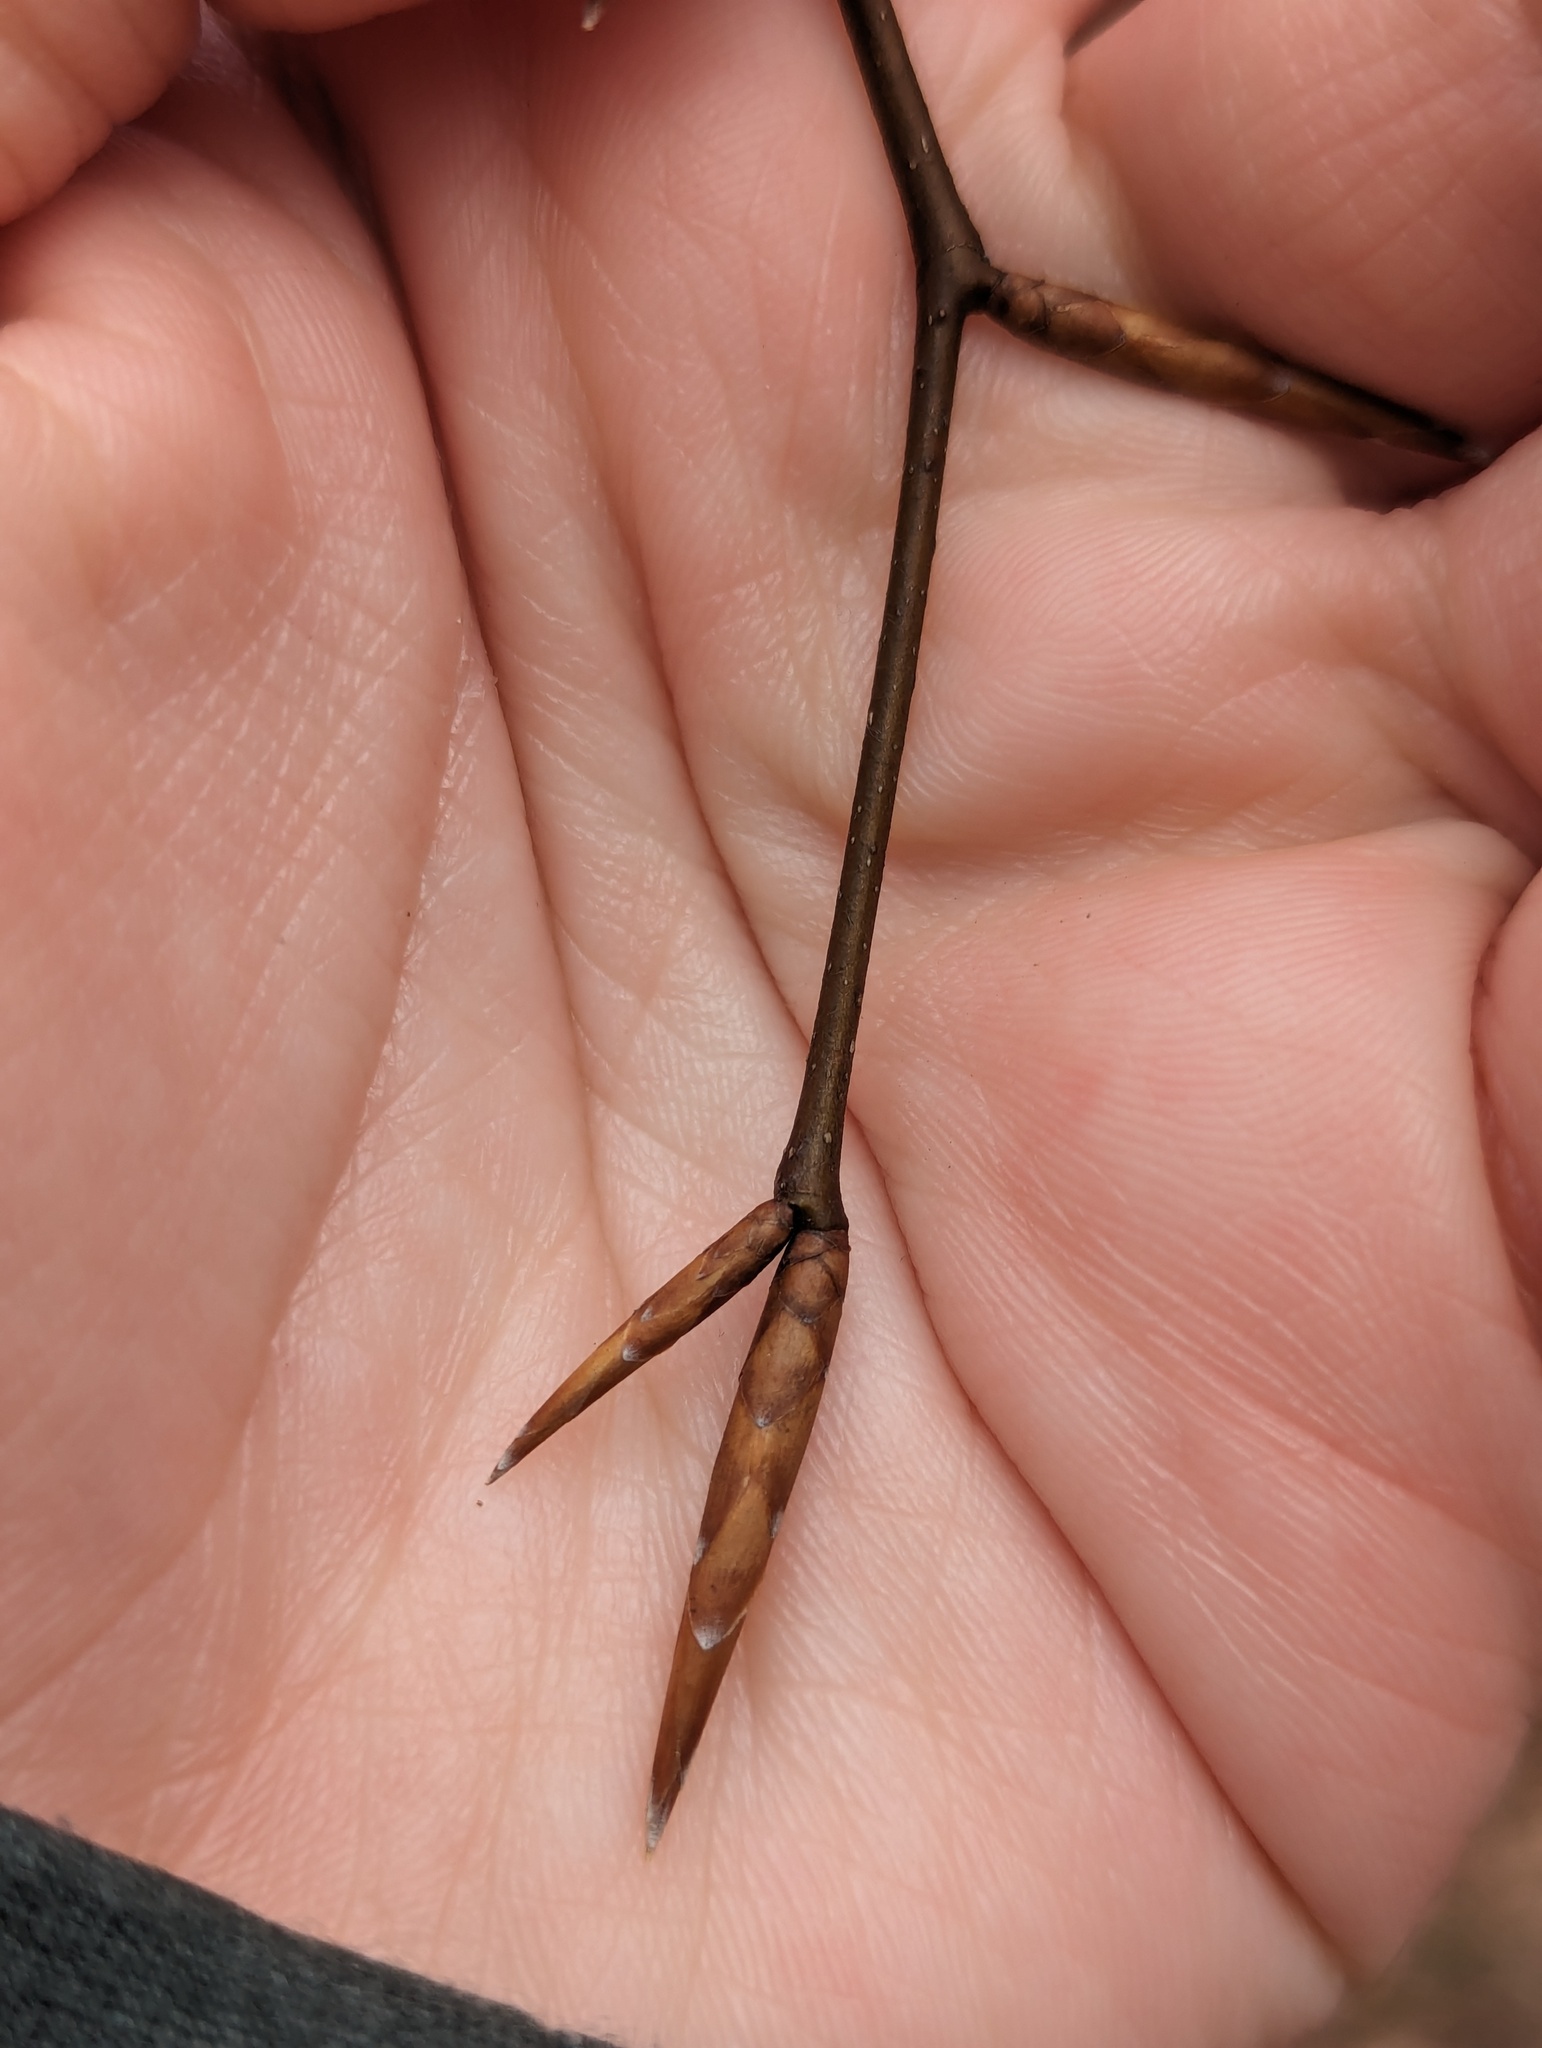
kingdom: Plantae
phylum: Tracheophyta
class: Magnoliopsida
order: Fagales
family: Fagaceae
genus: Fagus
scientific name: Fagus grandifolia
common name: American beech
